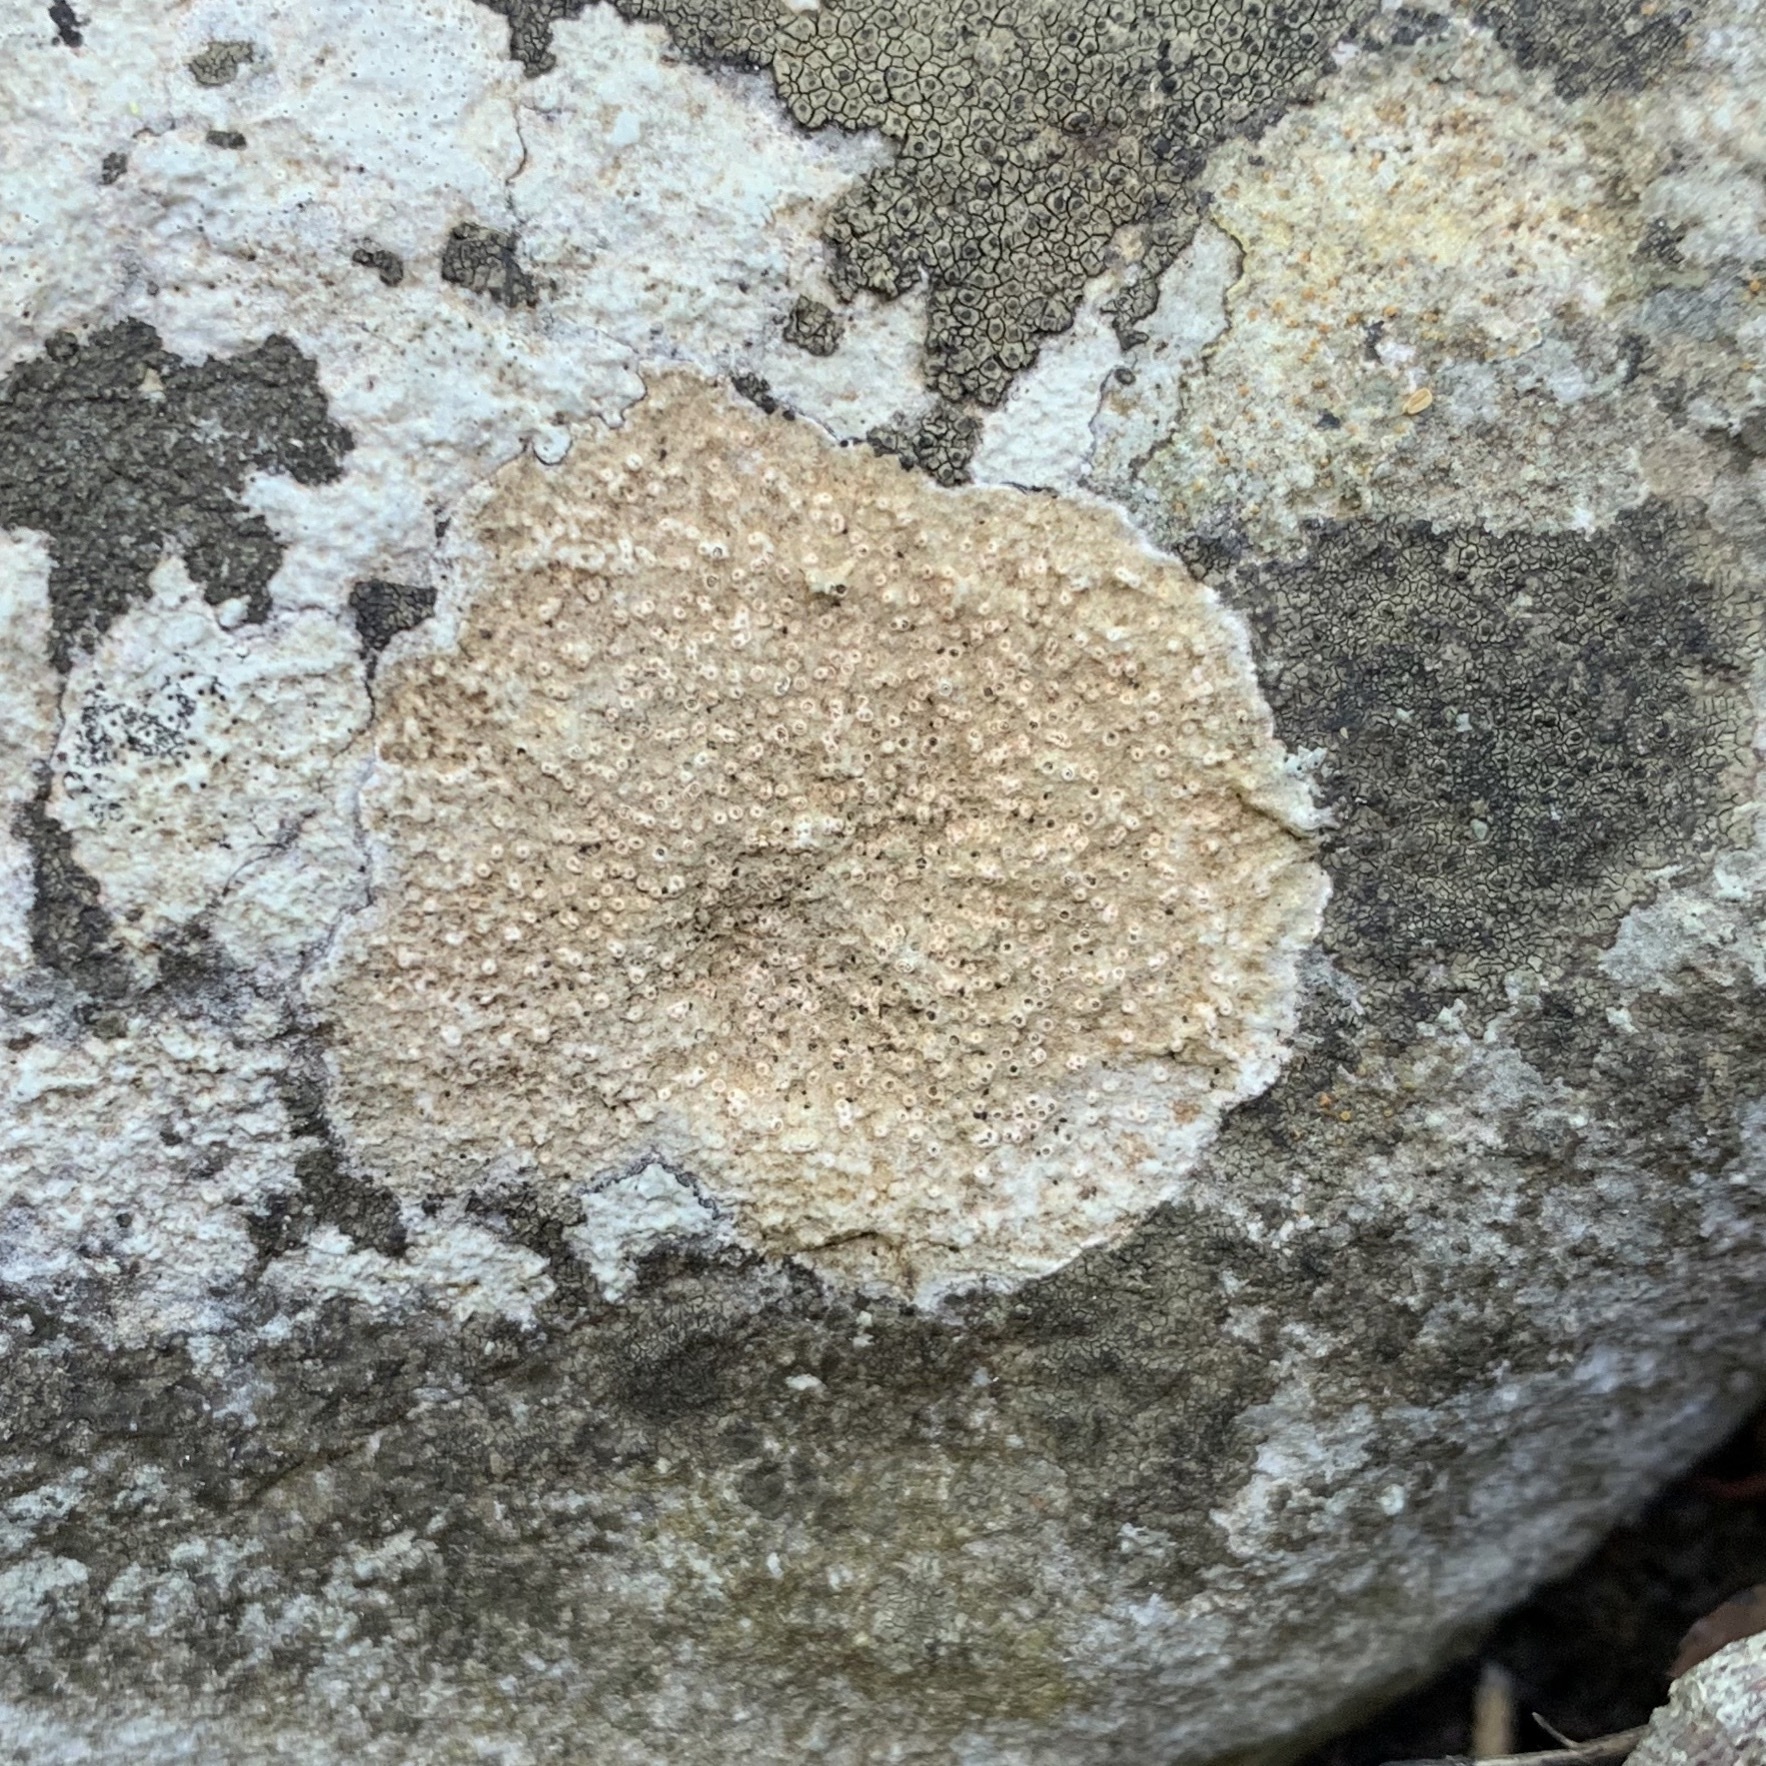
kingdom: Fungi
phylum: Ascomycota
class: Lecanoromycetes
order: Ostropales
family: Stictidaceae
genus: Petractis
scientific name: Petractis farlowii
